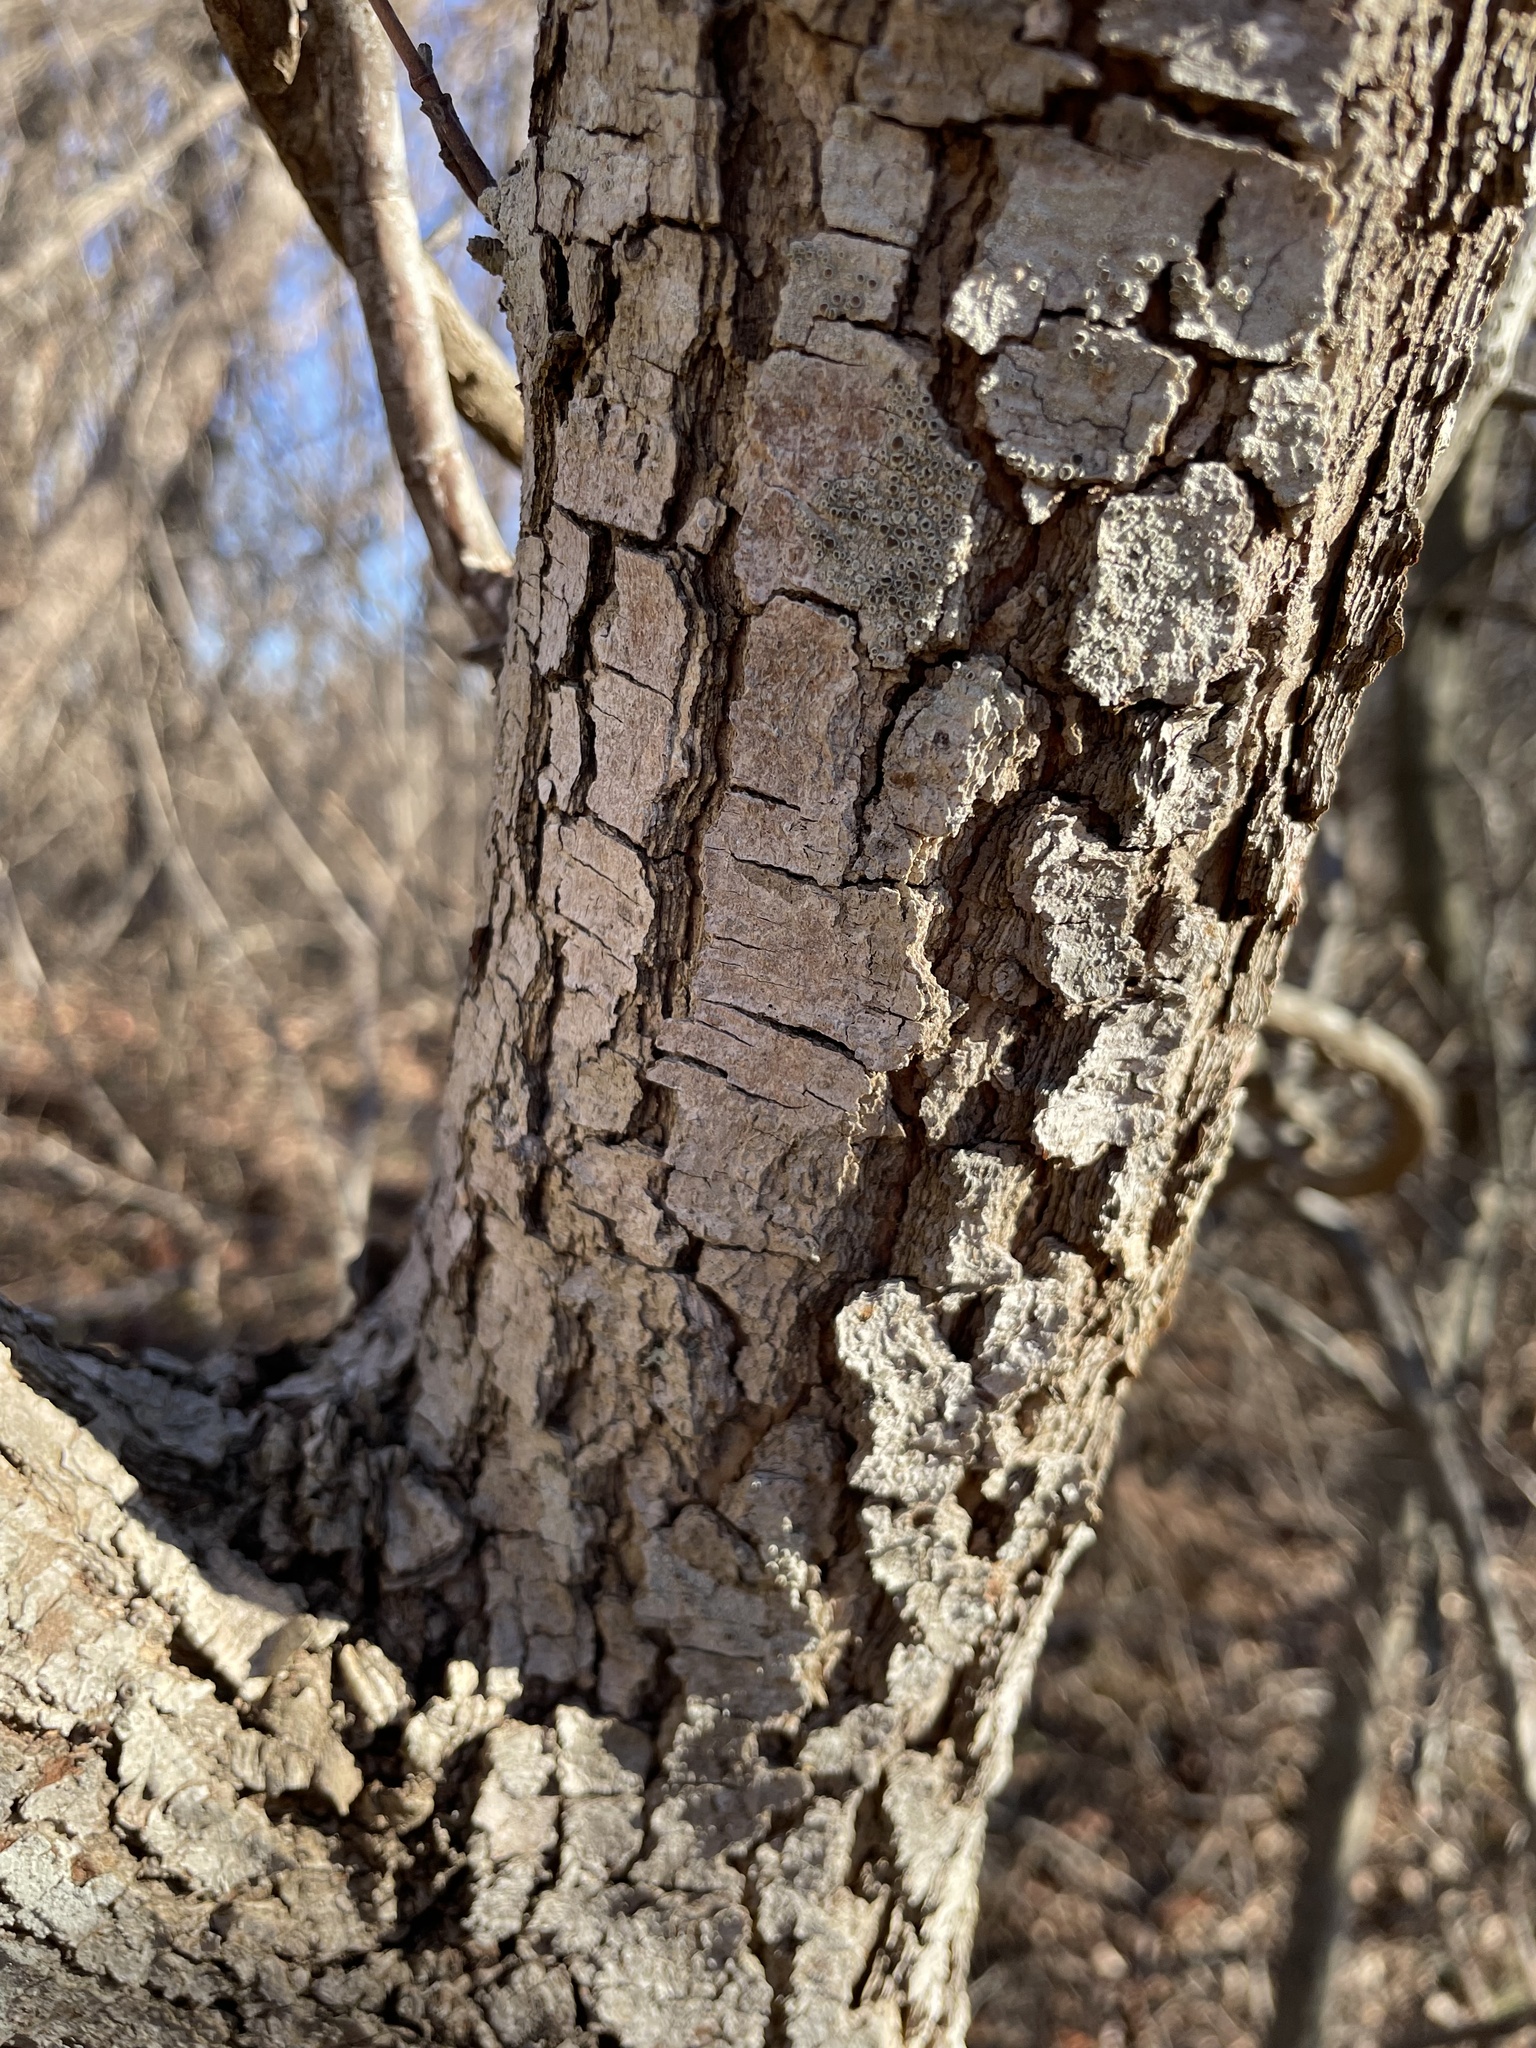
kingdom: Plantae
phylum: Tracheophyta
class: Magnoliopsida
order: Cornales
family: Cornaceae
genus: Cornus
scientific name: Cornus florida
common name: Flowering dogwood
